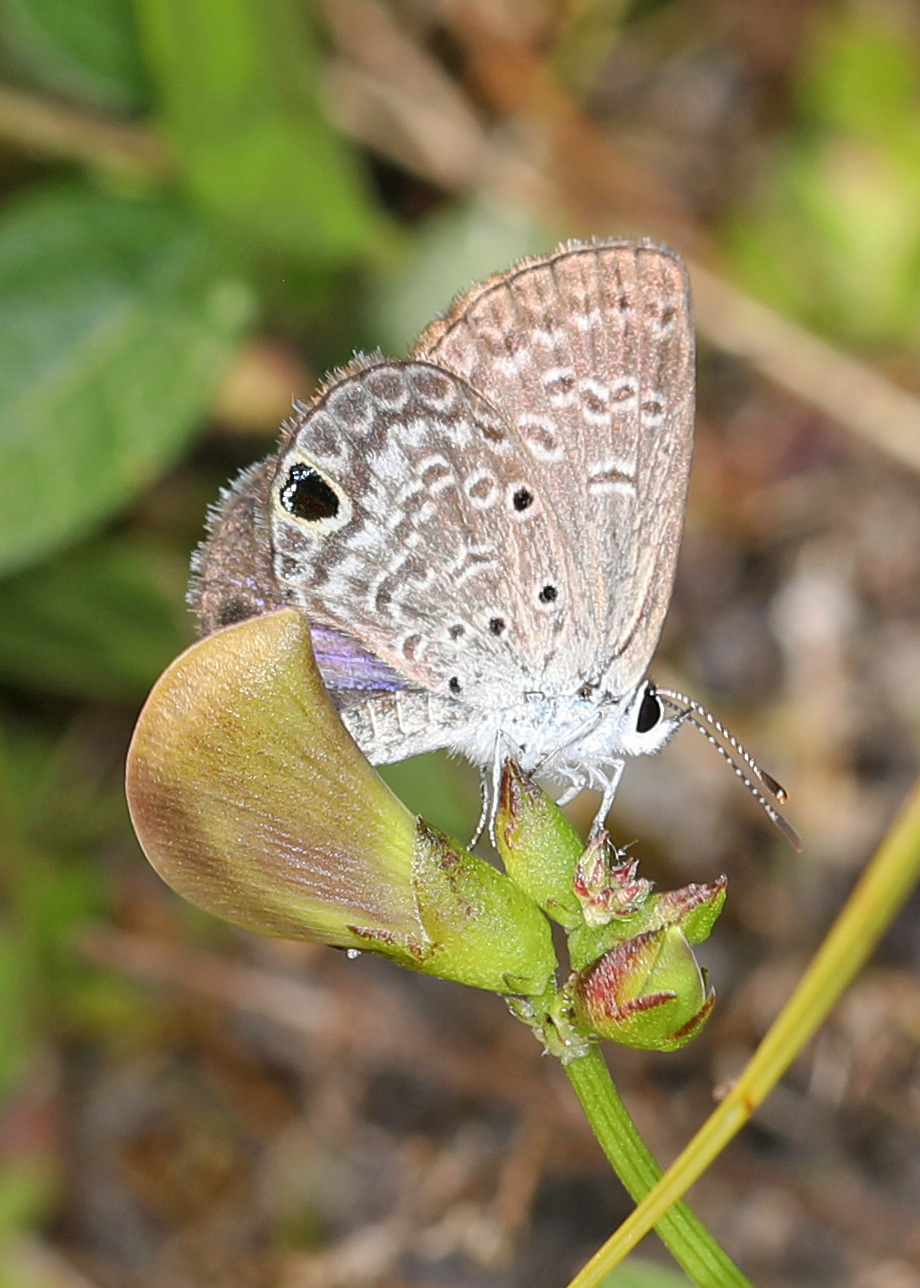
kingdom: Animalia
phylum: Arthropoda
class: Insecta
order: Lepidoptera
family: Lycaenidae
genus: Hemiargus
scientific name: Hemiargus ceraunus
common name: Ceraunus blue
